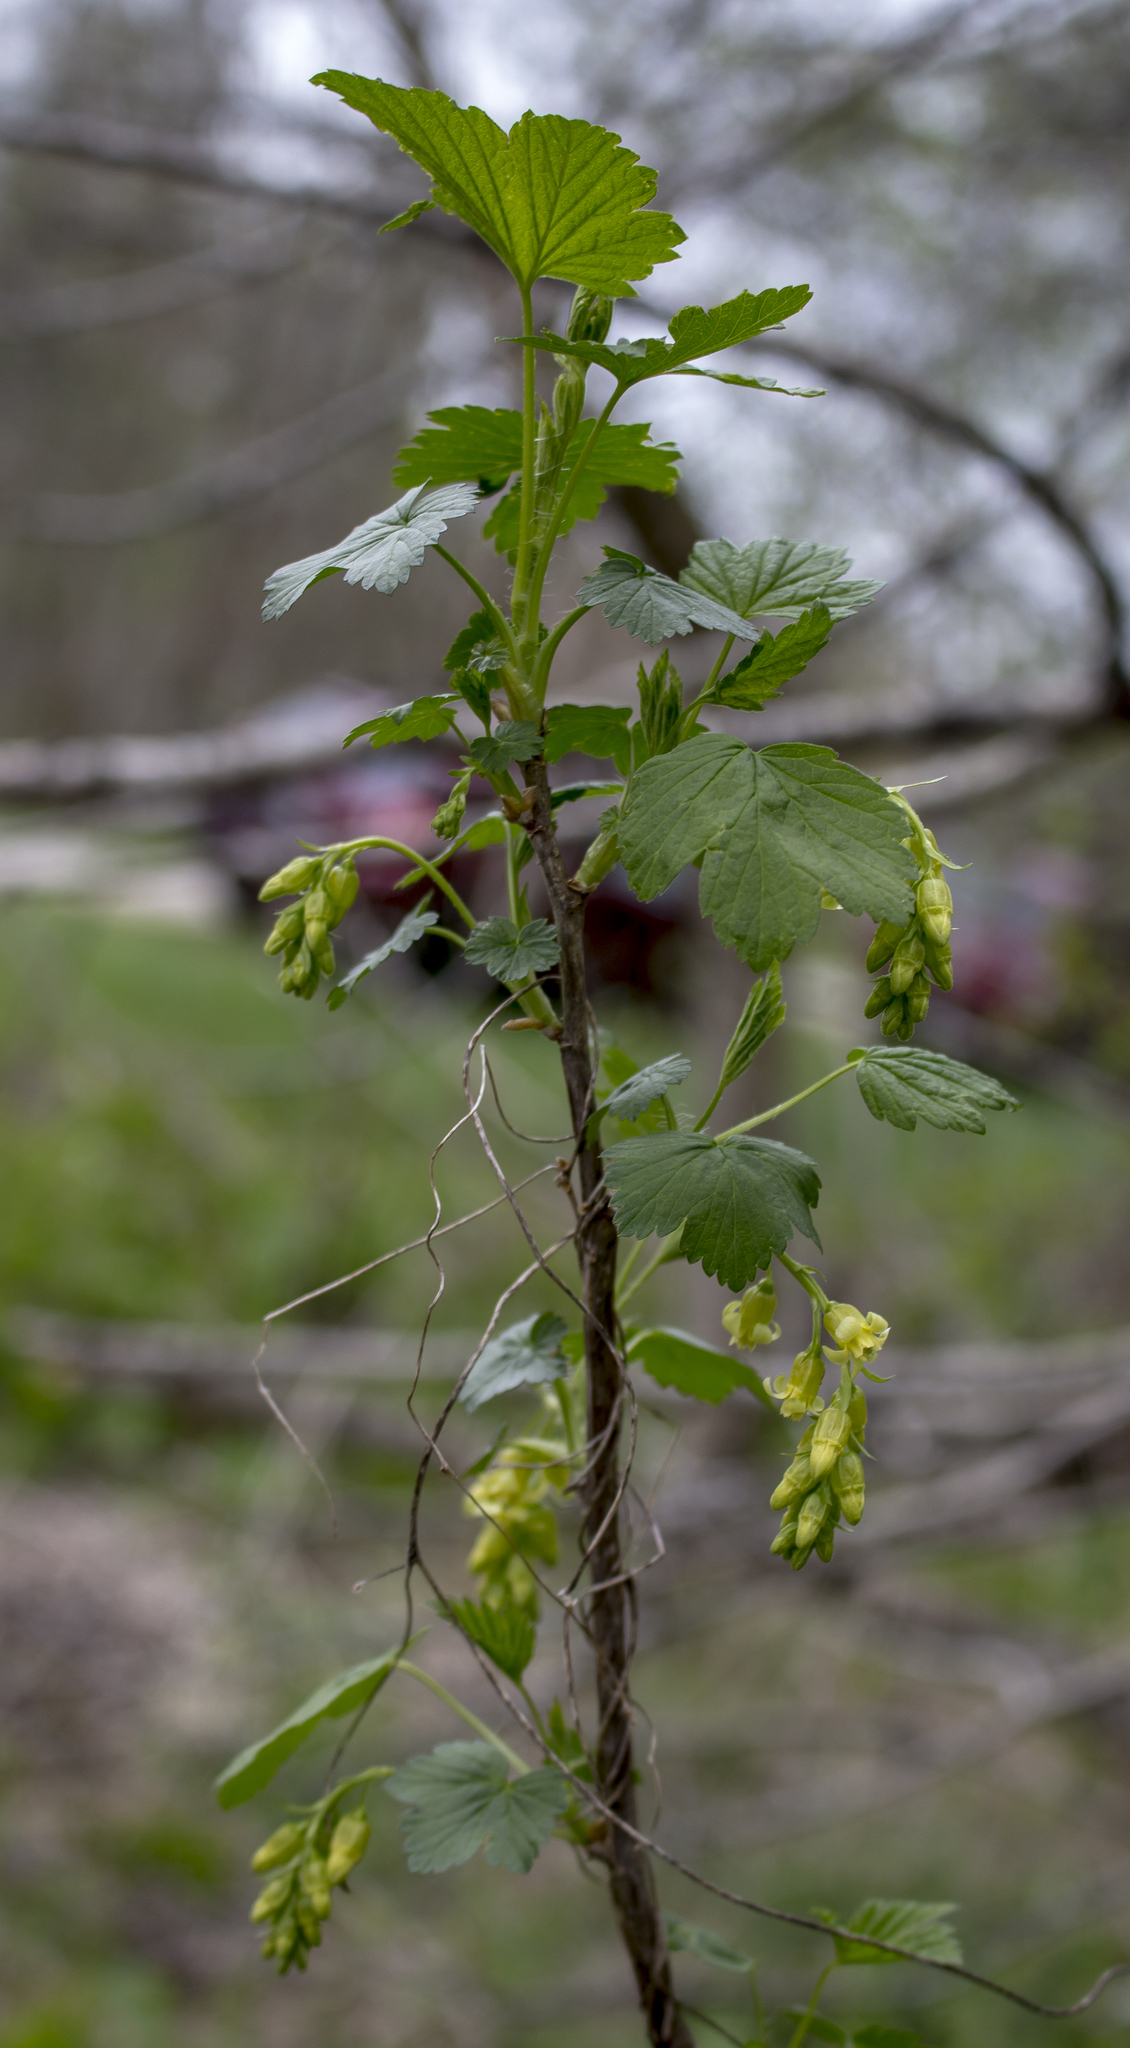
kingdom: Plantae
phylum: Tracheophyta
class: Magnoliopsida
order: Saxifragales
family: Grossulariaceae
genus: Ribes
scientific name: Ribes americanum
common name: American black currant
